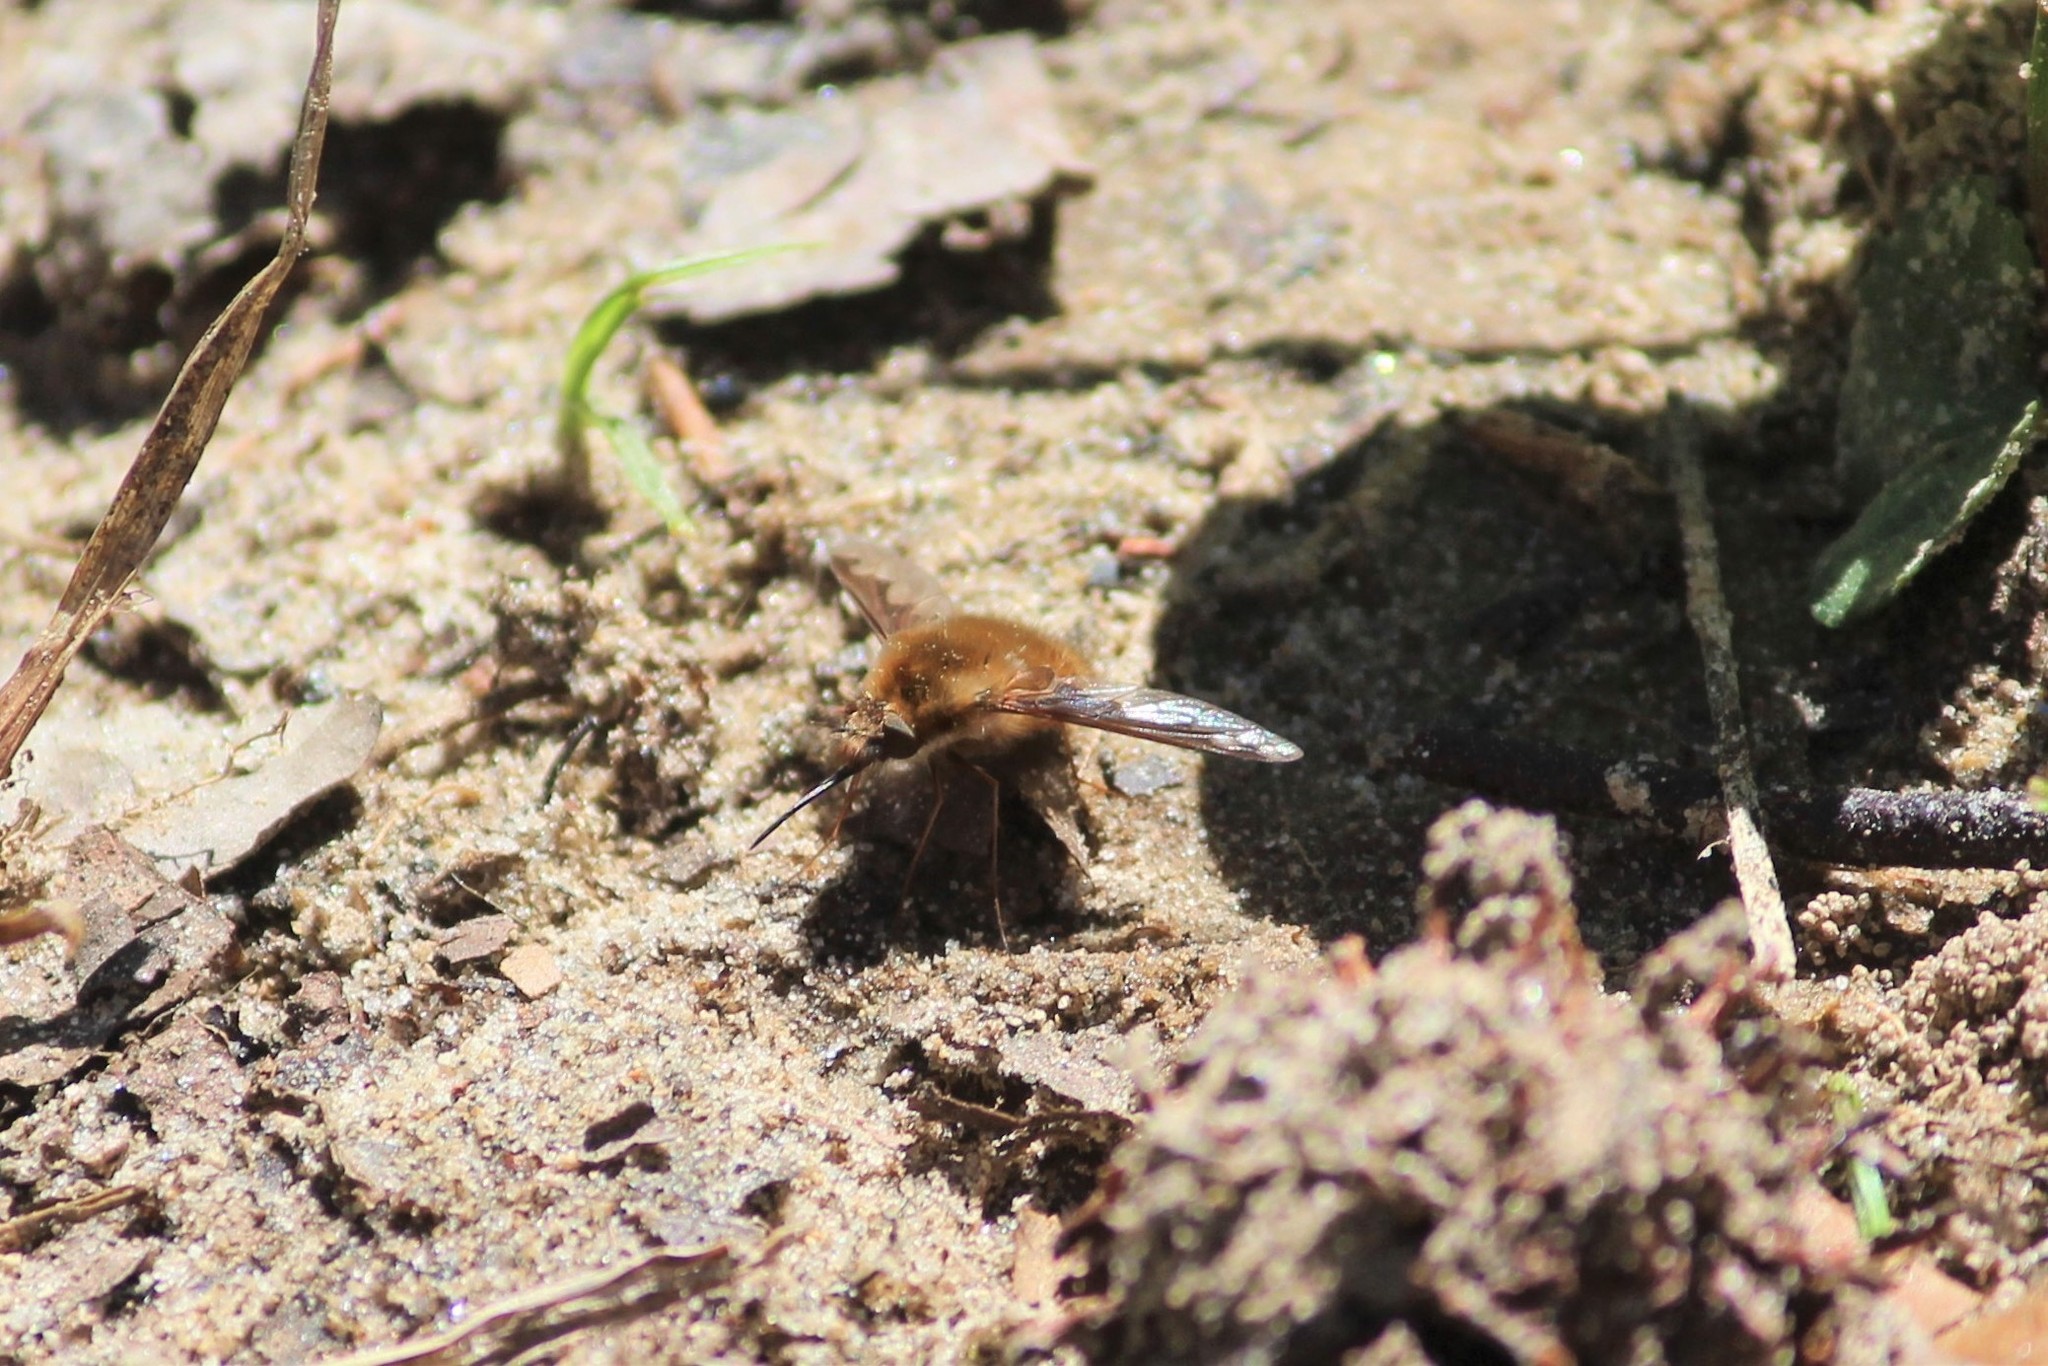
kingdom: Animalia
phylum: Arthropoda
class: Insecta
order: Diptera
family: Bombyliidae
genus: Bombylius
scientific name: Bombylius major
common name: Bee fly
